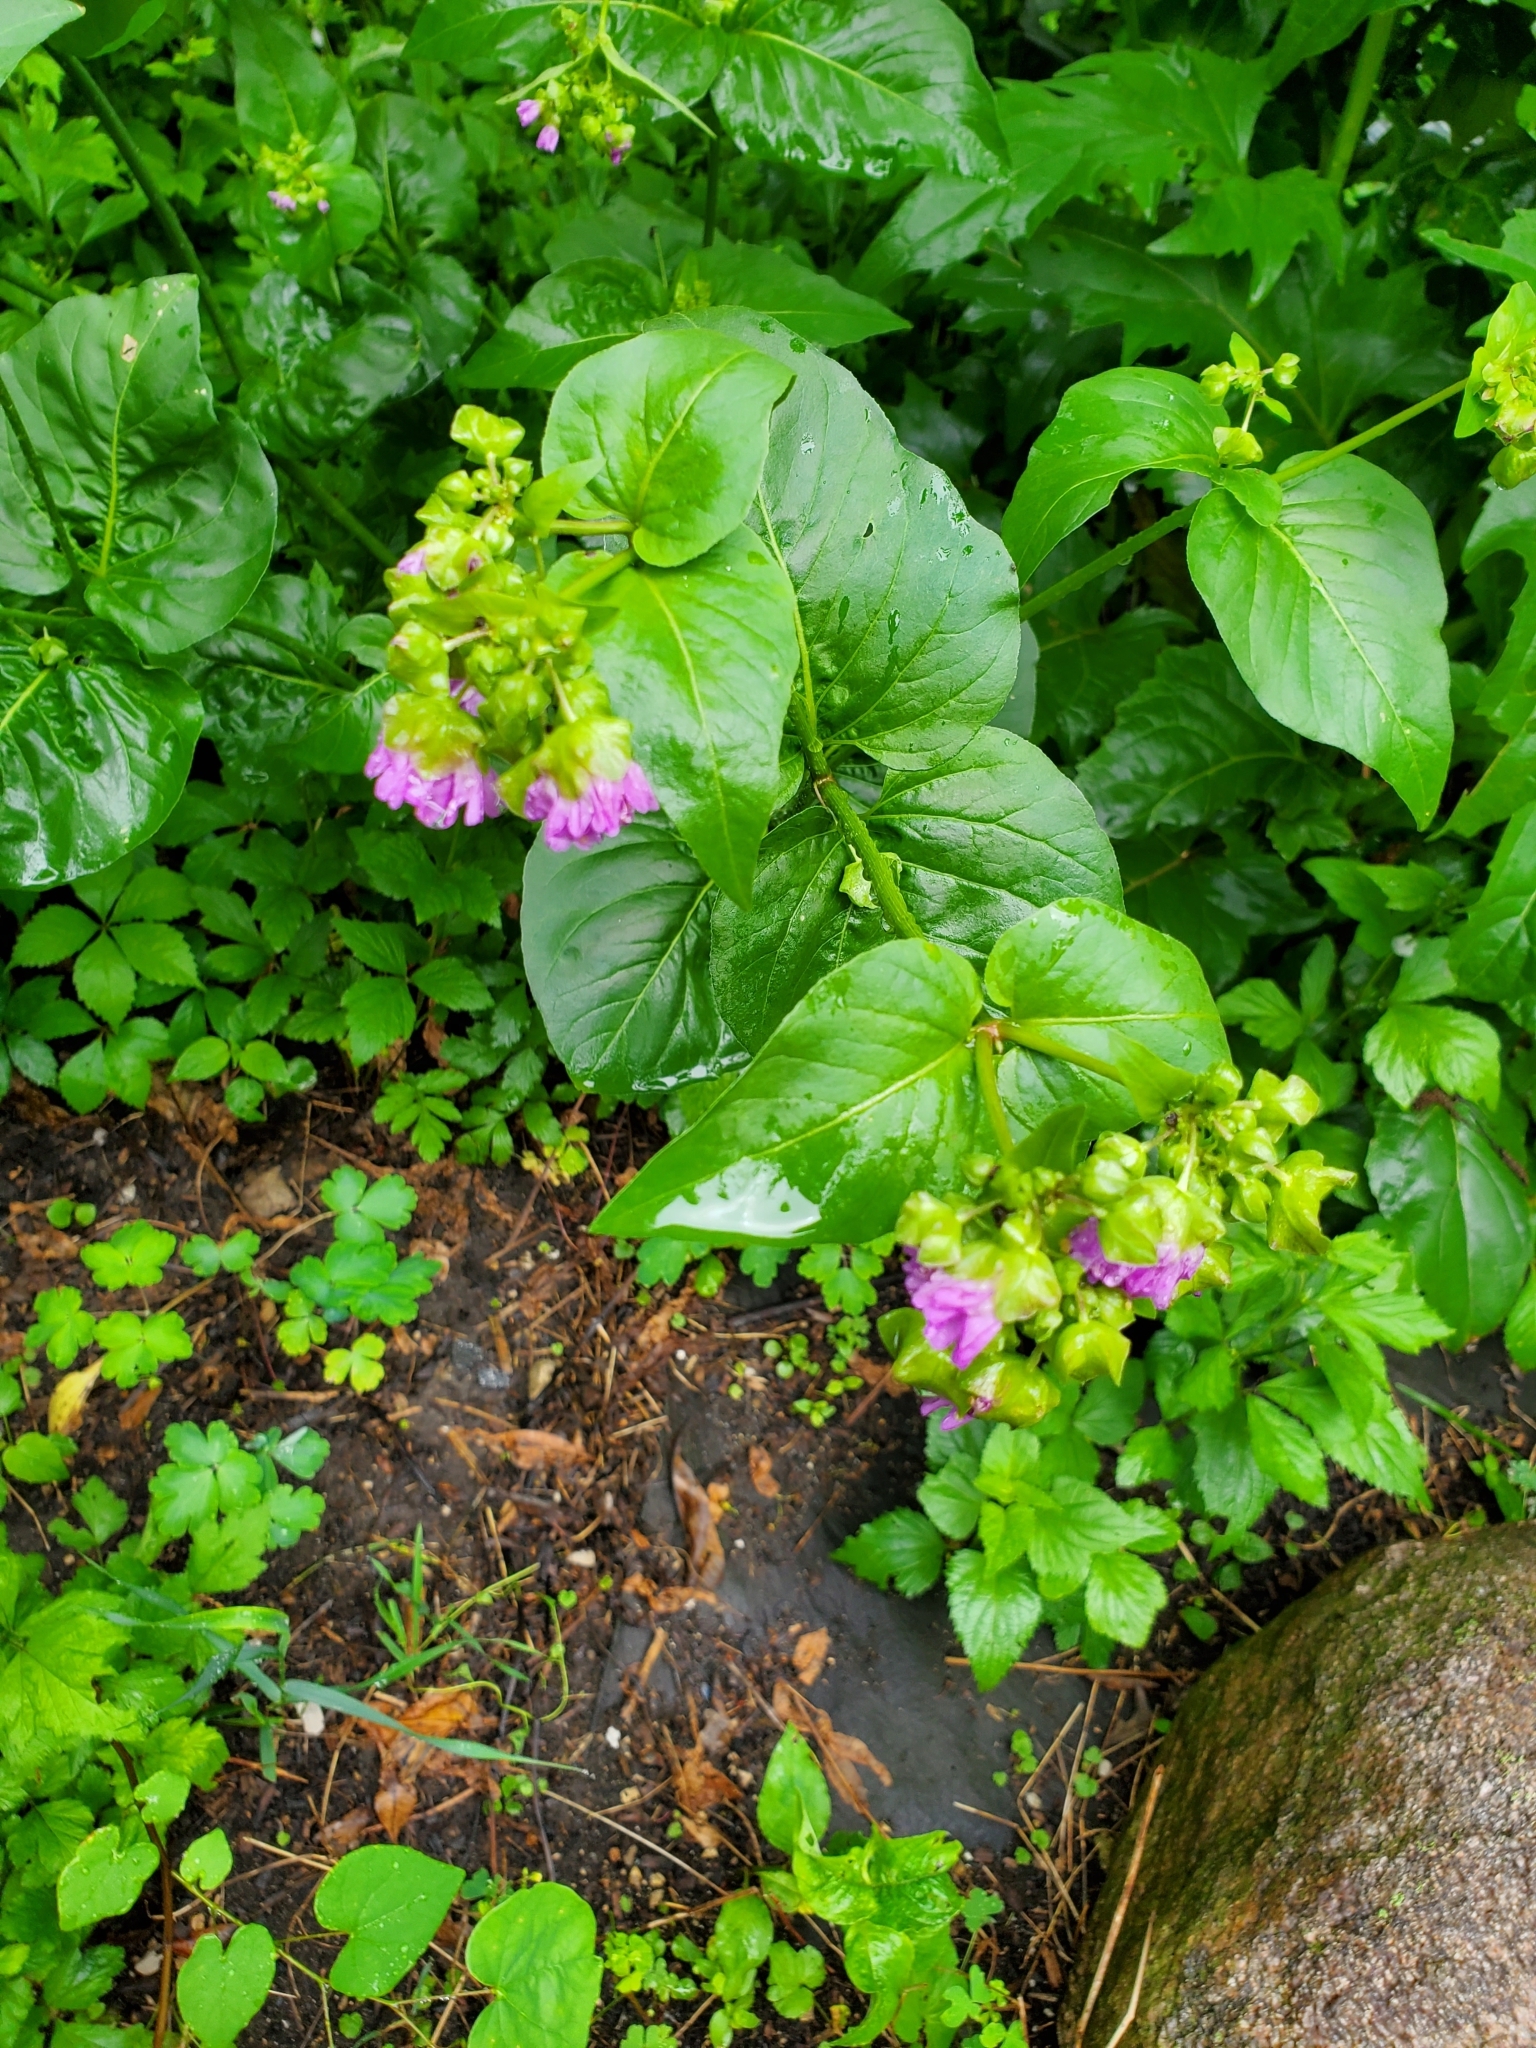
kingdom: Plantae
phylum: Tracheophyta
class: Magnoliopsida
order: Caryophyllales
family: Nyctaginaceae
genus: Mirabilis
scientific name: Mirabilis nyctaginea
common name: Umbrella wort
